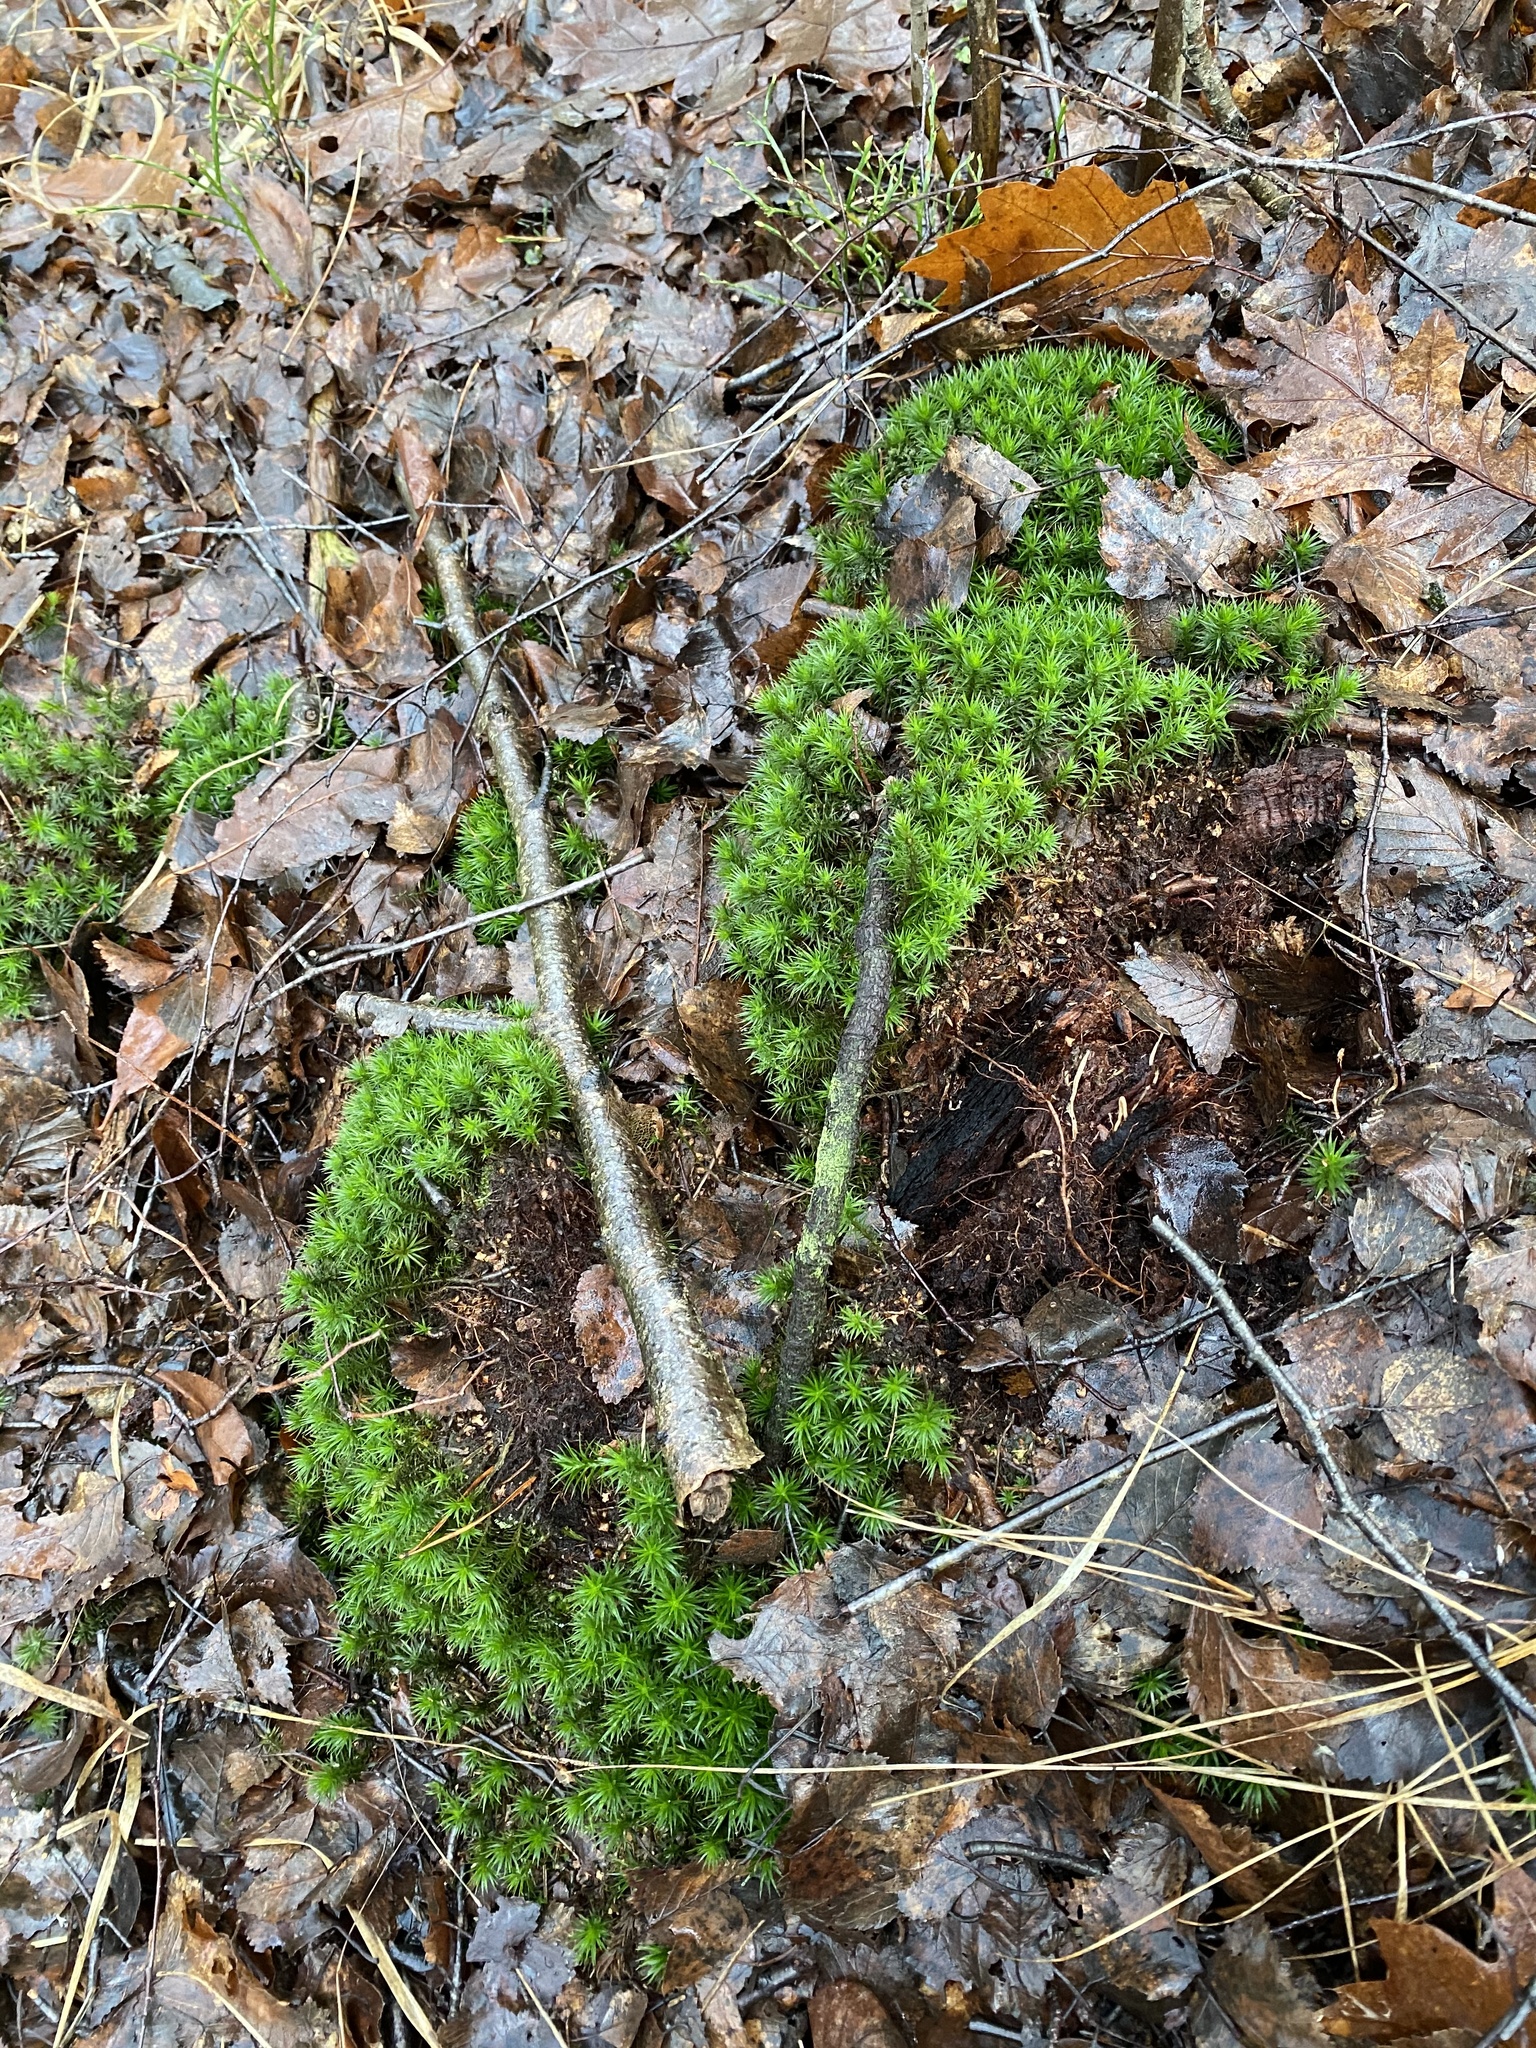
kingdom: Plantae
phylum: Bryophyta
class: Polytrichopsida
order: Polytrichales
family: Polytrichaceae
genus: Polytrichum
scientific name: Polytrichum formosum
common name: Bank haircap moss
